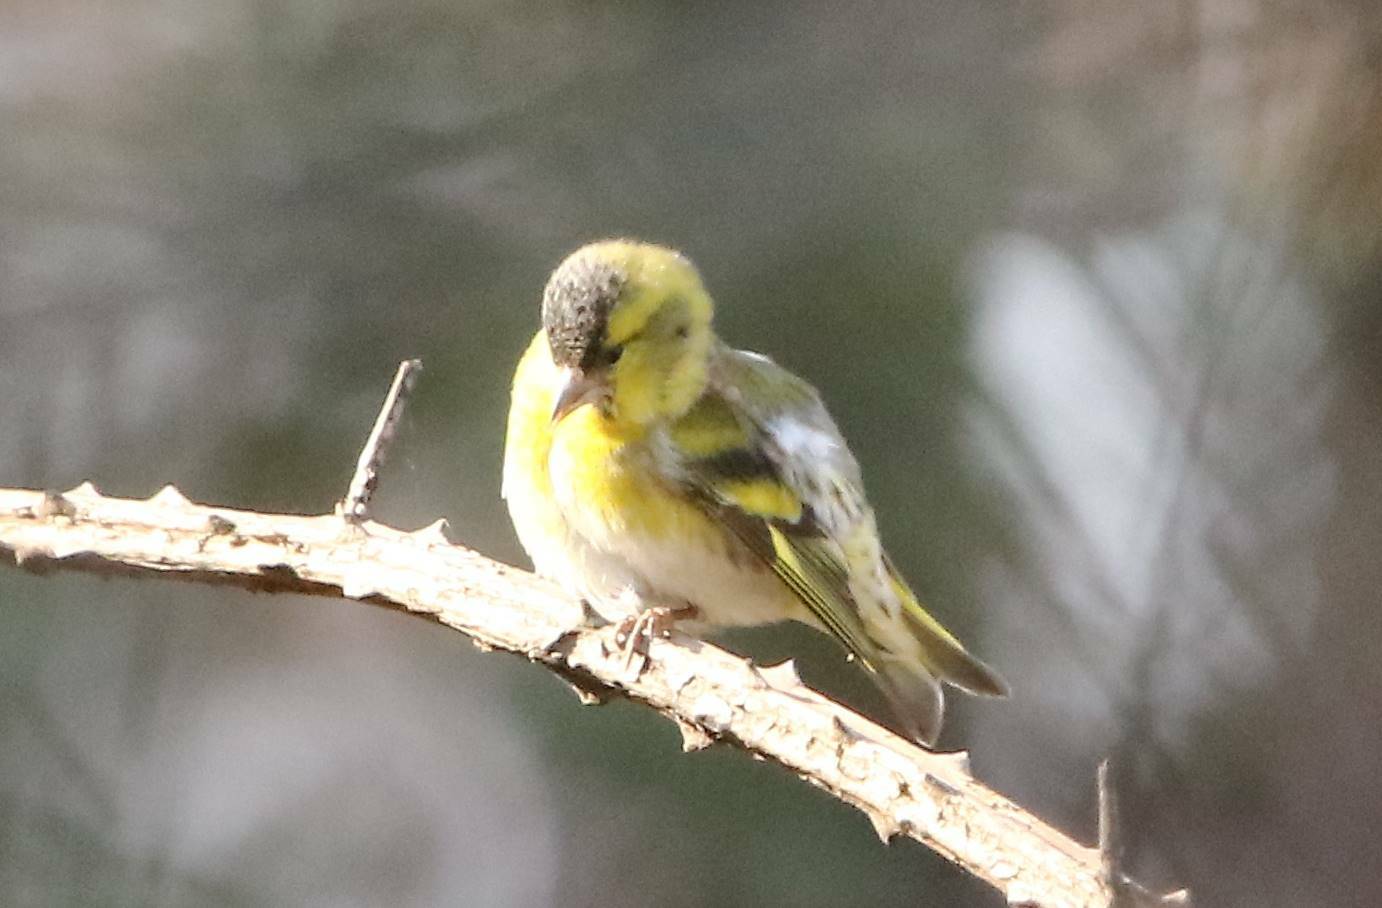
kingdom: Animalia
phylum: Chordata
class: Aves
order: Passeriformes
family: Fringillidae
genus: Spinus
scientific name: Spinus spinus
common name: Eurasian siskin
